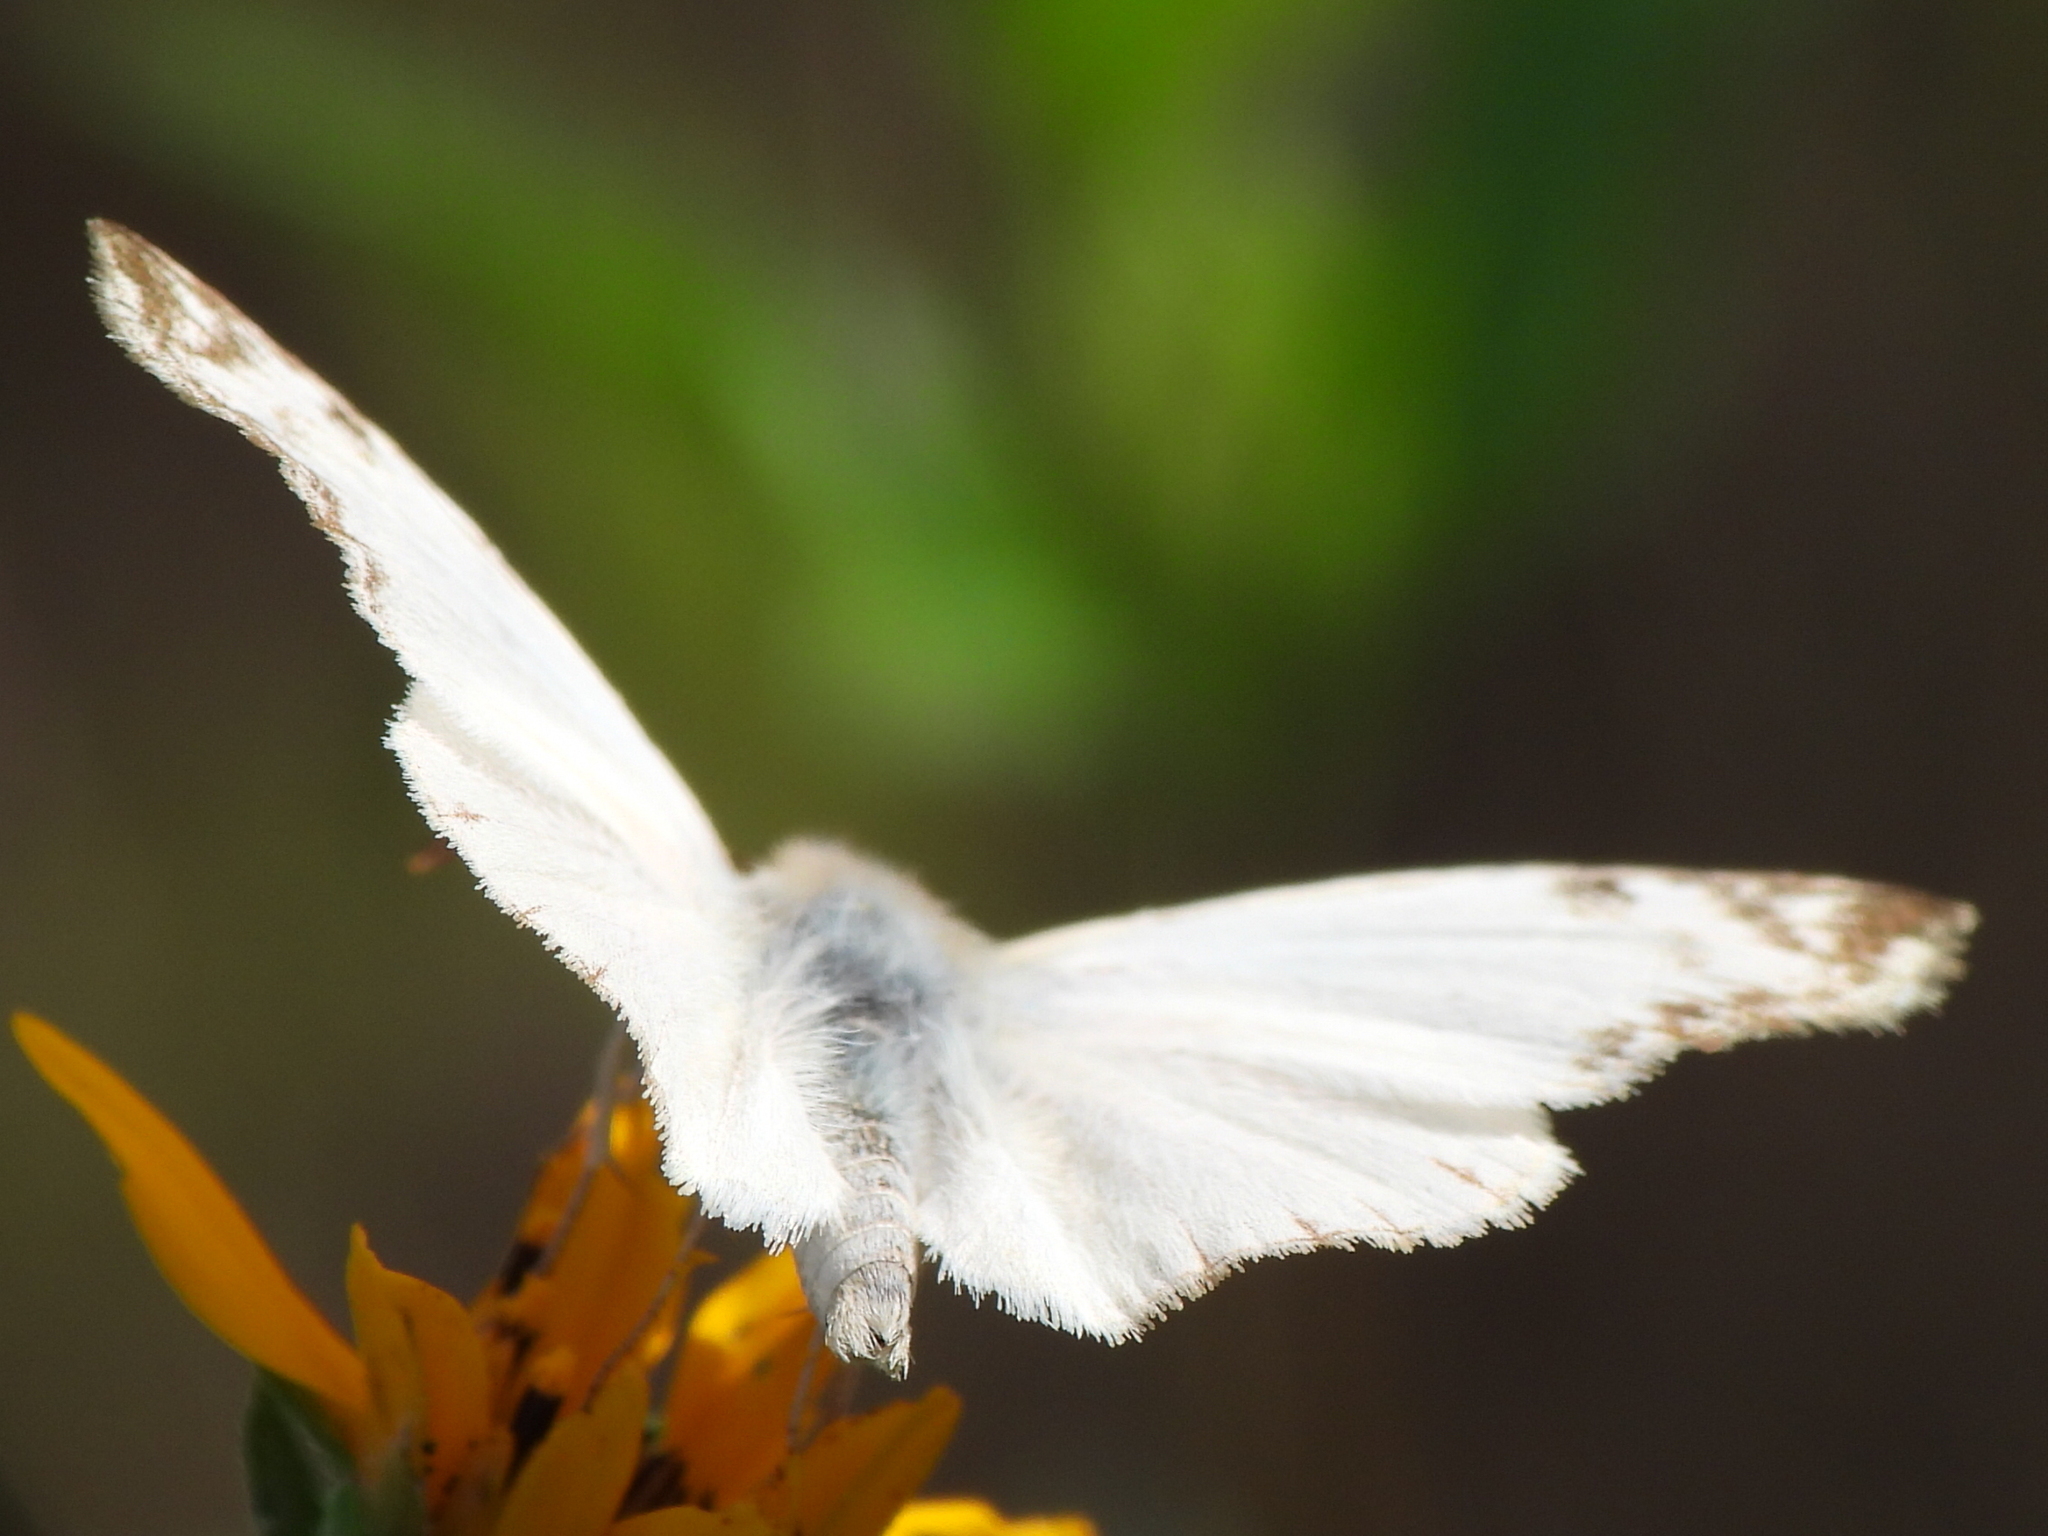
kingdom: Animalia
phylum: Arthropoda
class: Insecta
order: Lepidoptera
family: Hesperiidae
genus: Heliopetes
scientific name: Heliopetes laviana
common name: Laviana white-skipper
